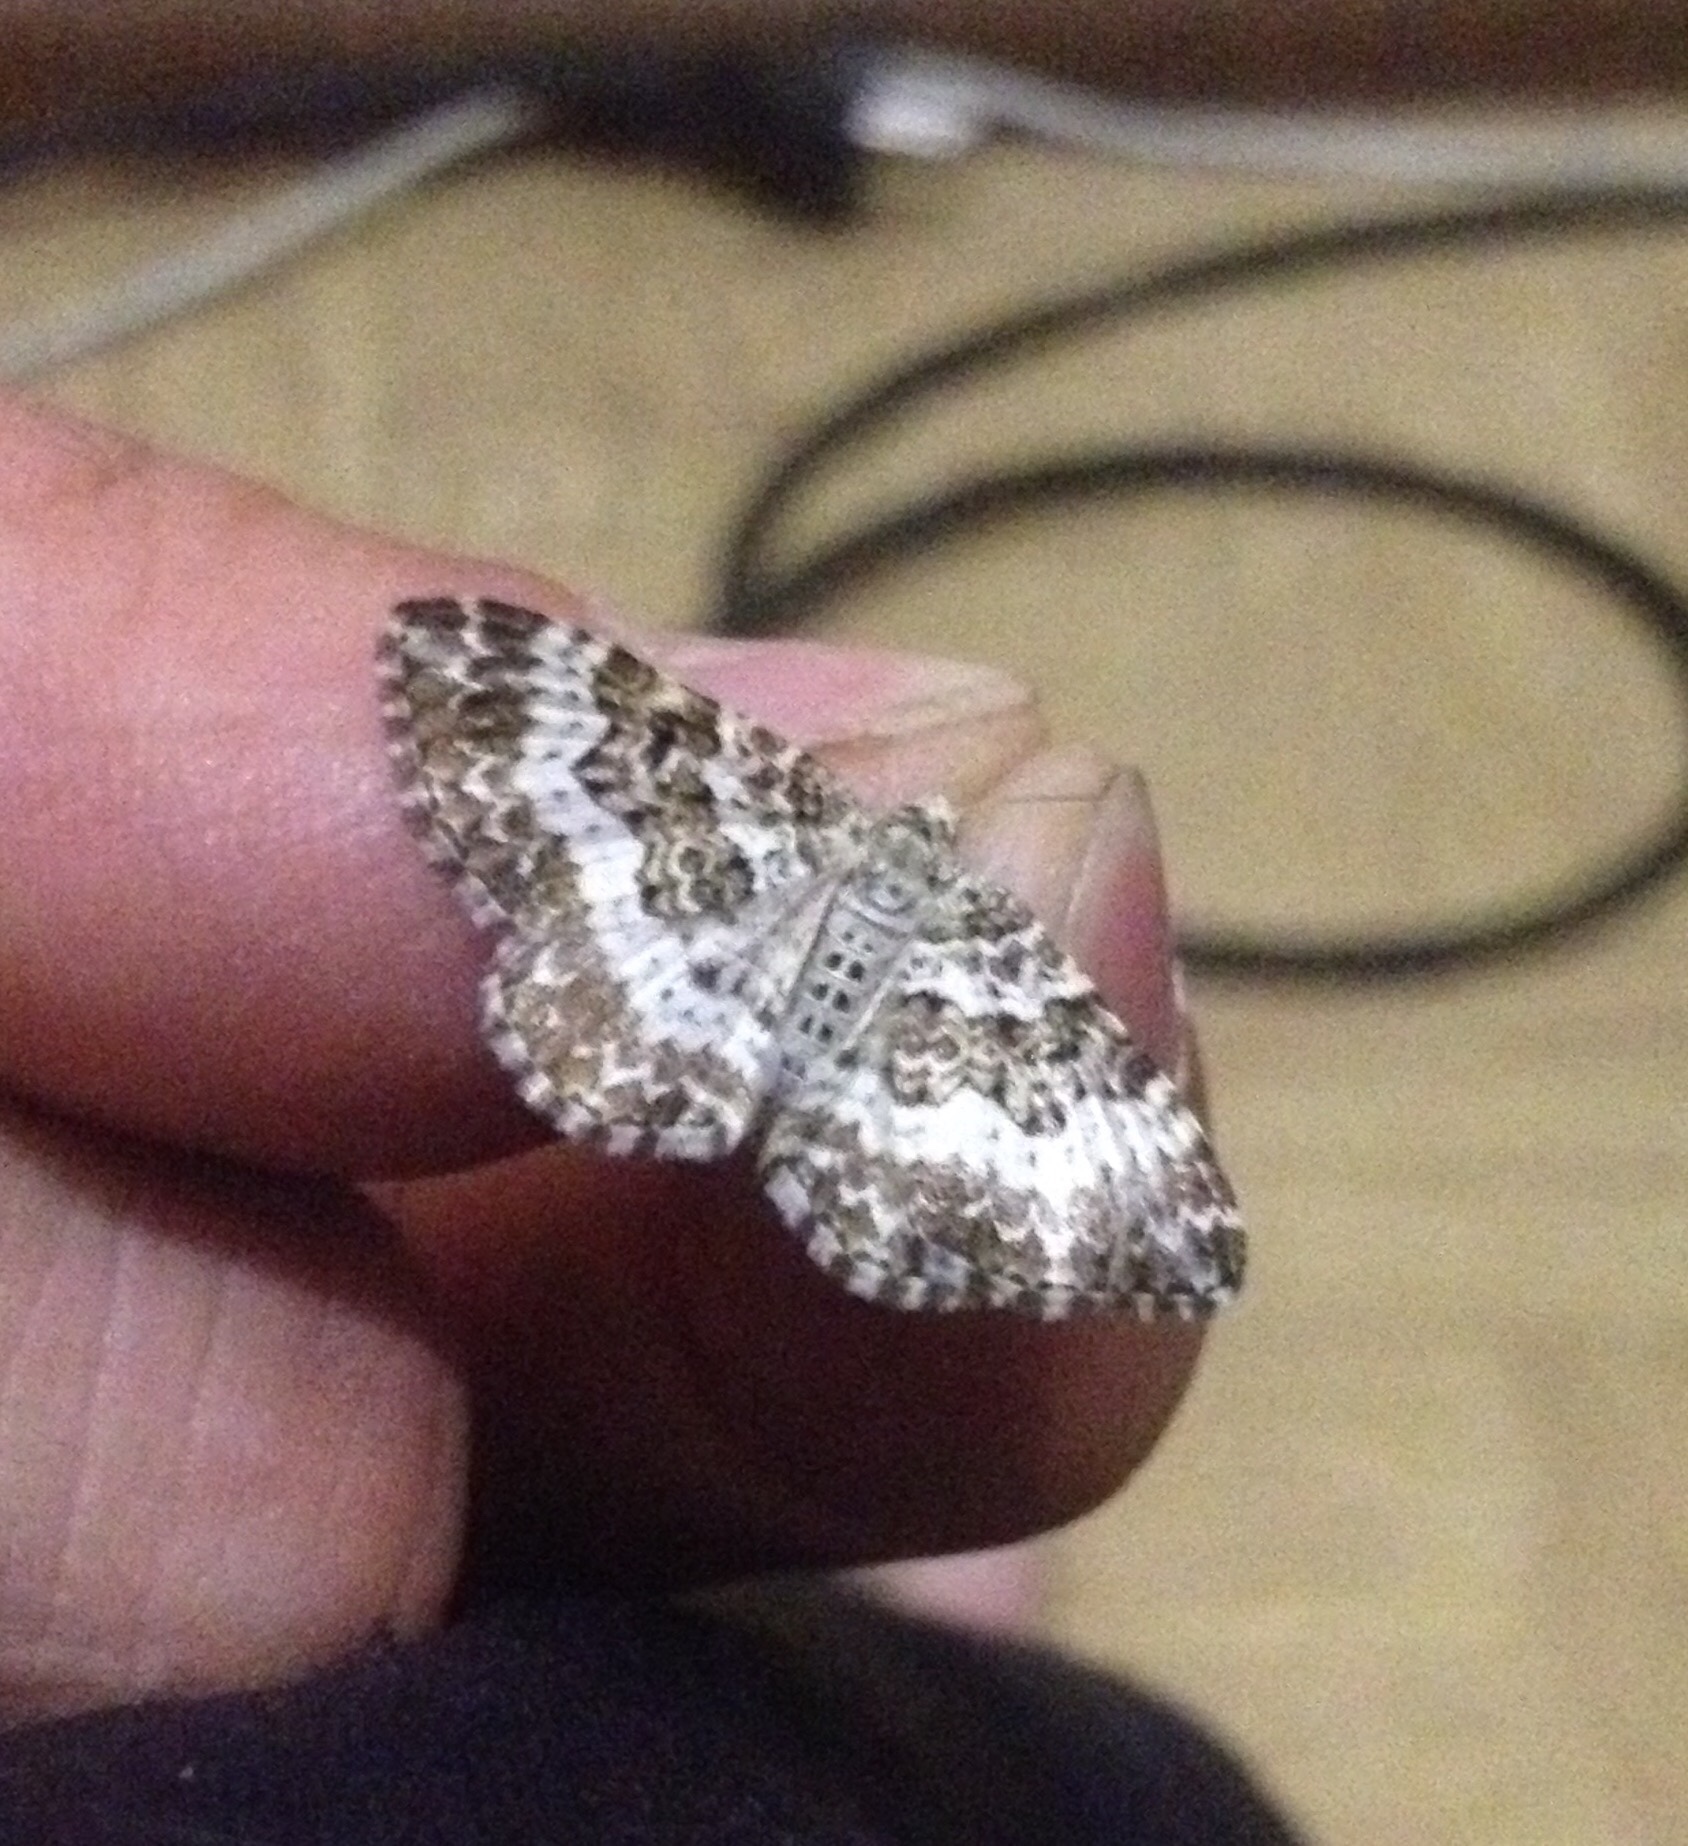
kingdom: Animalia
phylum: Arthropoda
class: Insecta
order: Lepidoptera
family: Geometridae
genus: Epirrhoe
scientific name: Epirrhoe tartuensis
